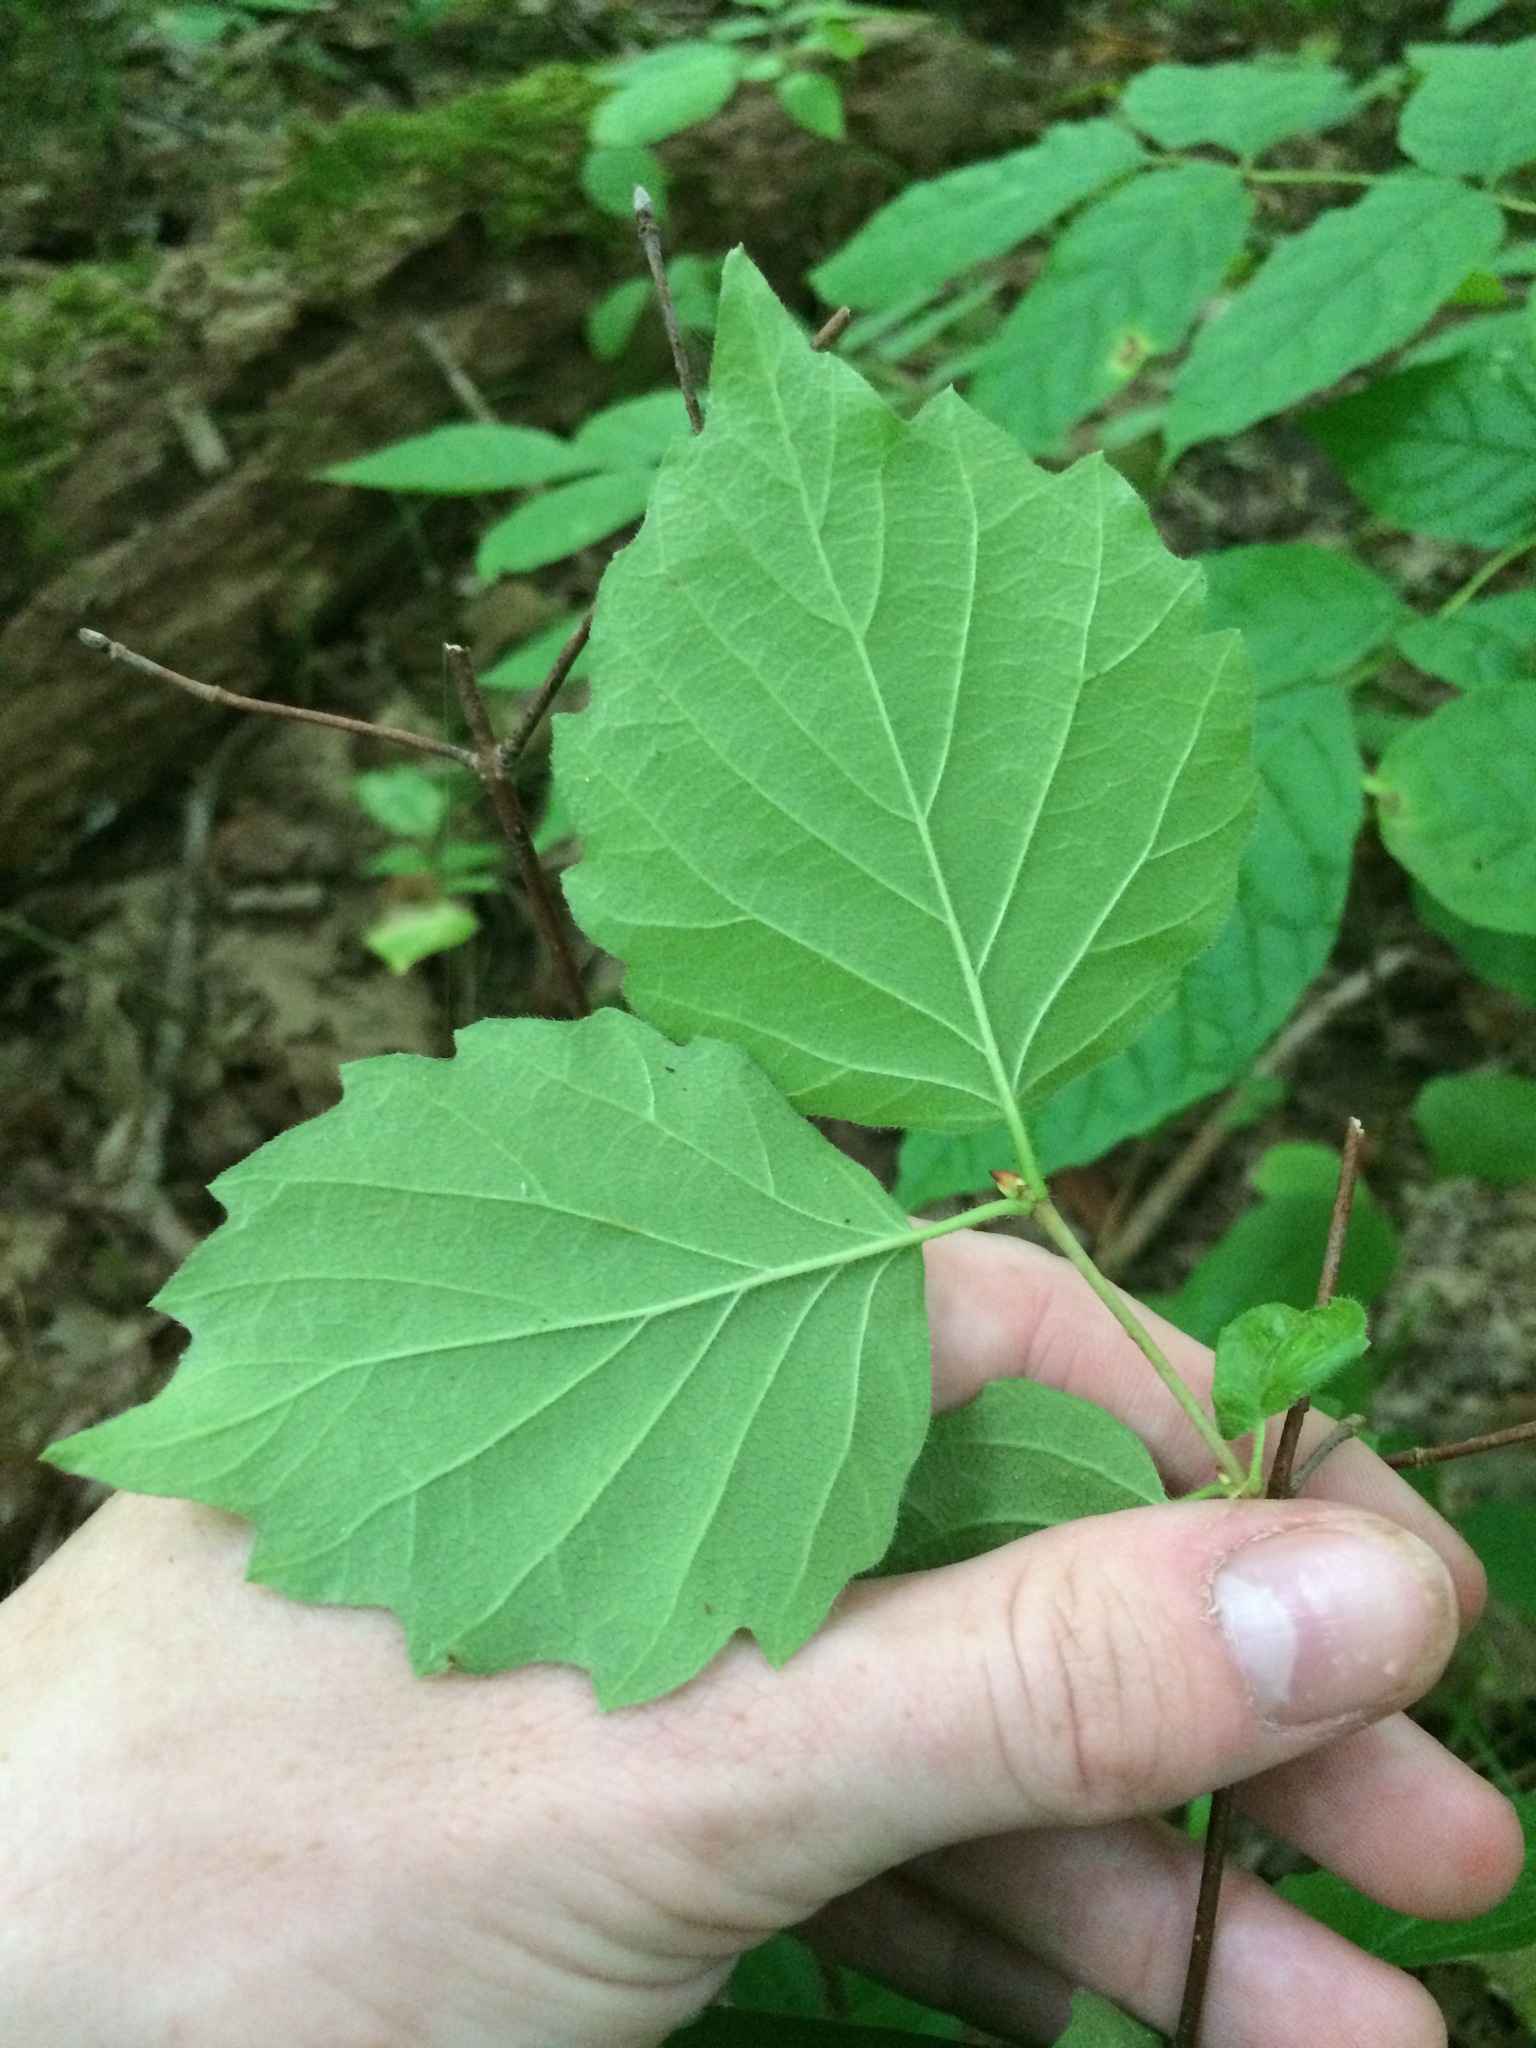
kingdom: Plantae
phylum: Tracheophyta
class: Magnoliopsida
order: Dipsacales
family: Viburnaceae
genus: Viburnum
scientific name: Viburnum rafinesqueanum
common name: Downy arrow-wood
